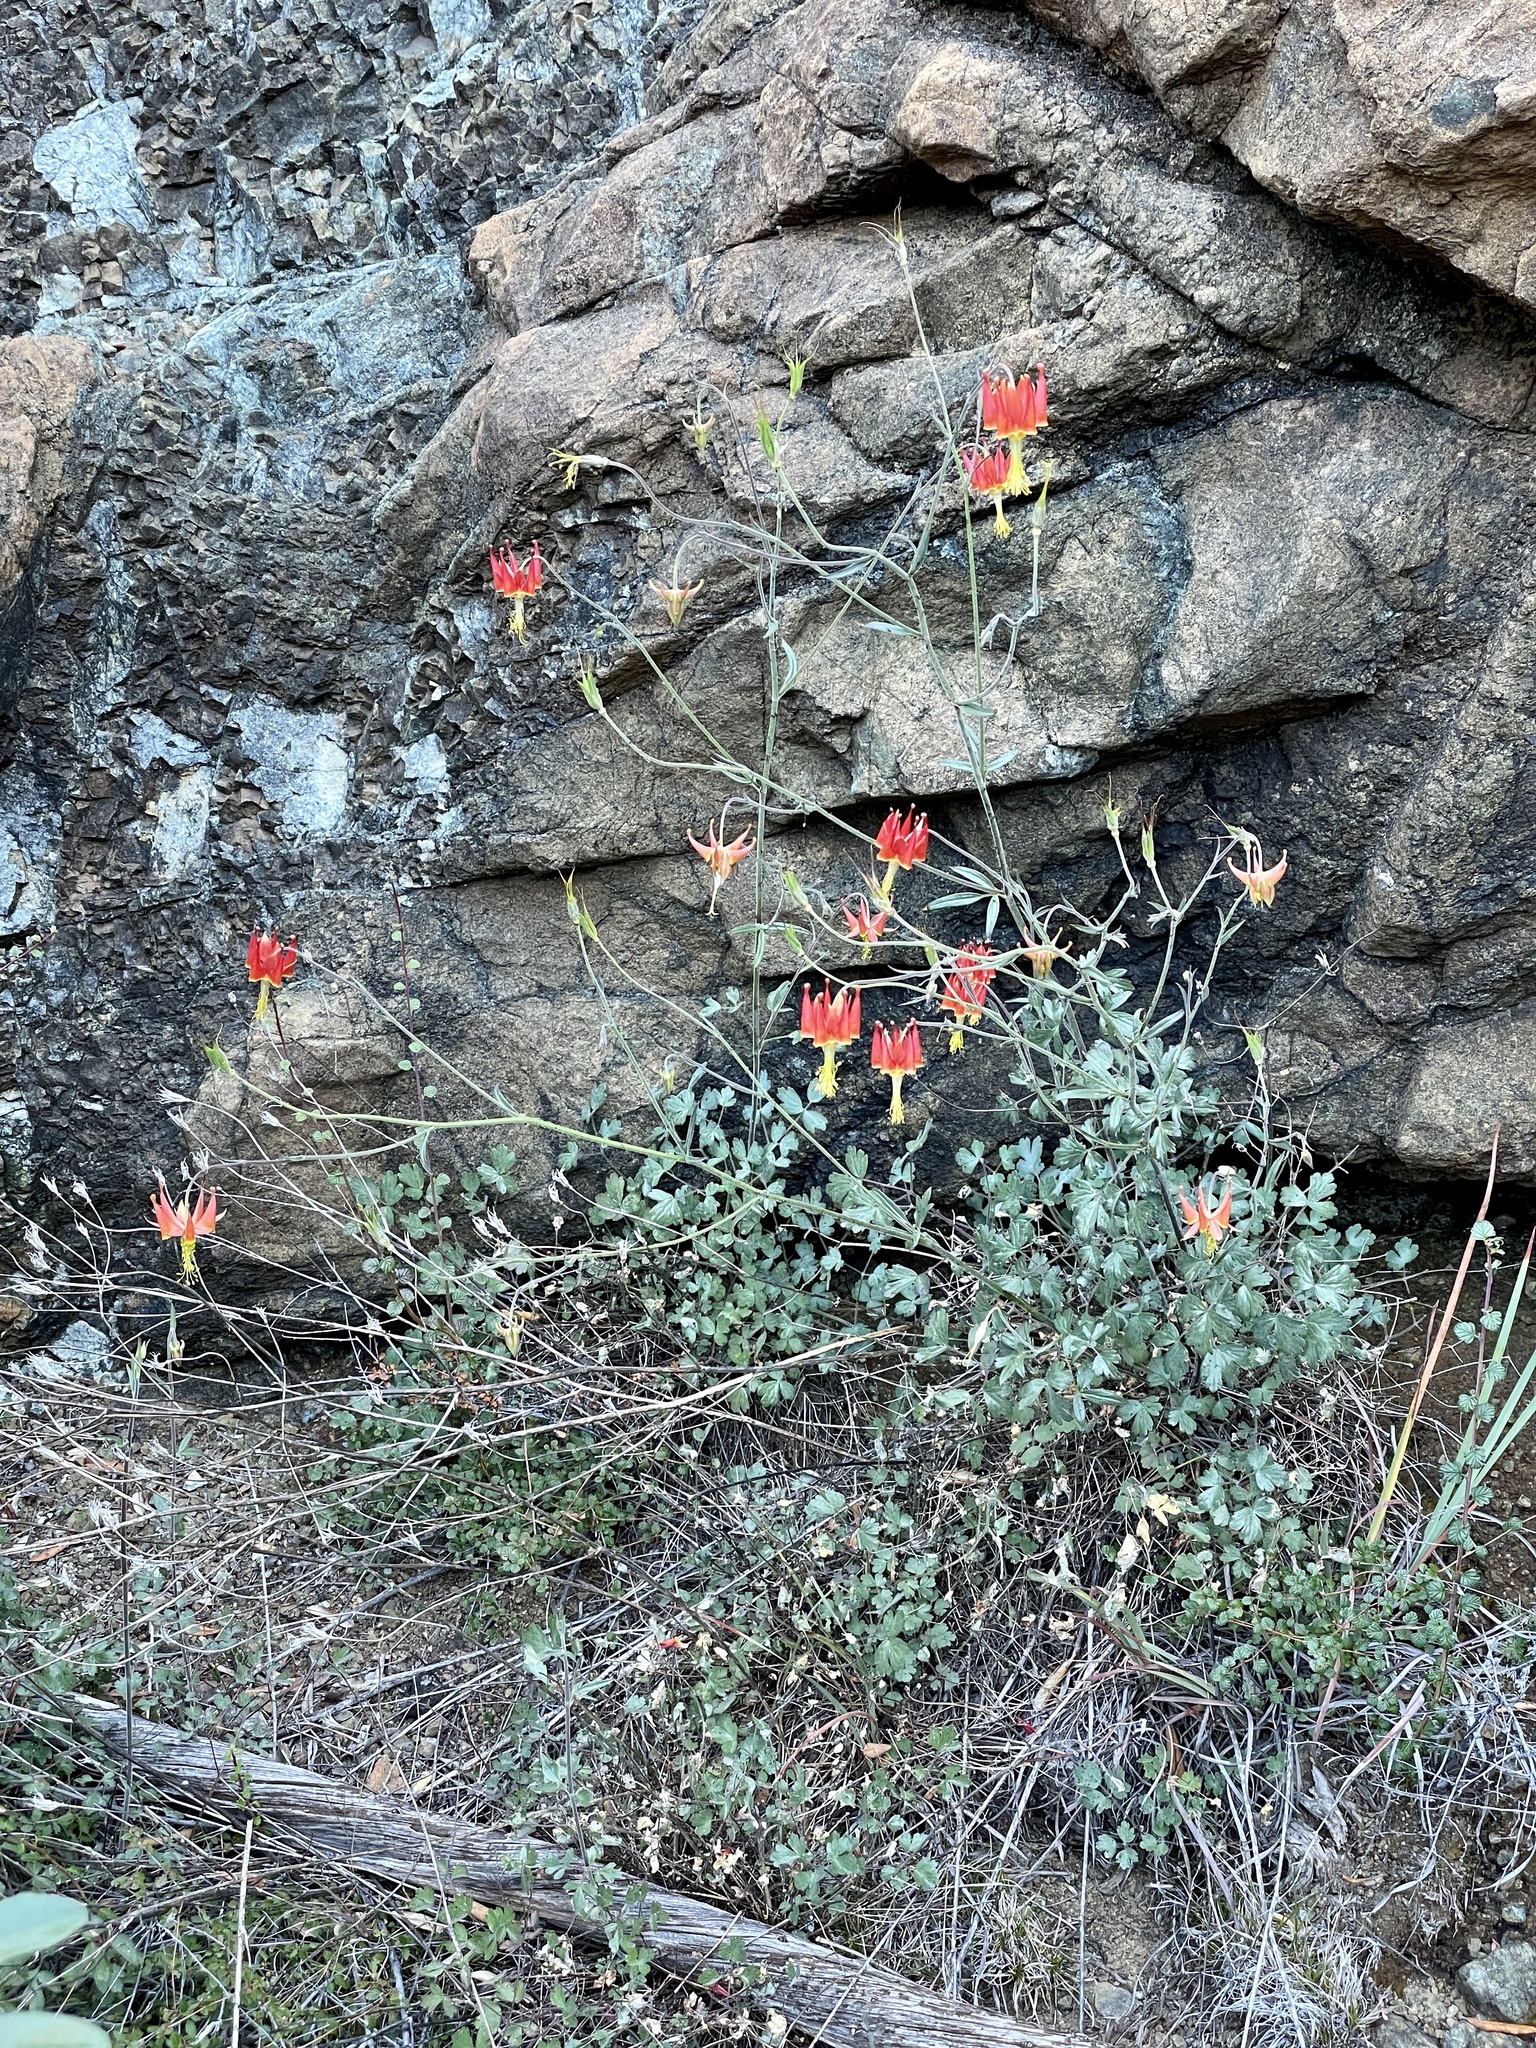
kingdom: Plantae
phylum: Tracheophyta
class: Magnoliopsida
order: Ranunculales
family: Ranunculaceae
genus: Aquilegia
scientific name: Aquilegia eximia
